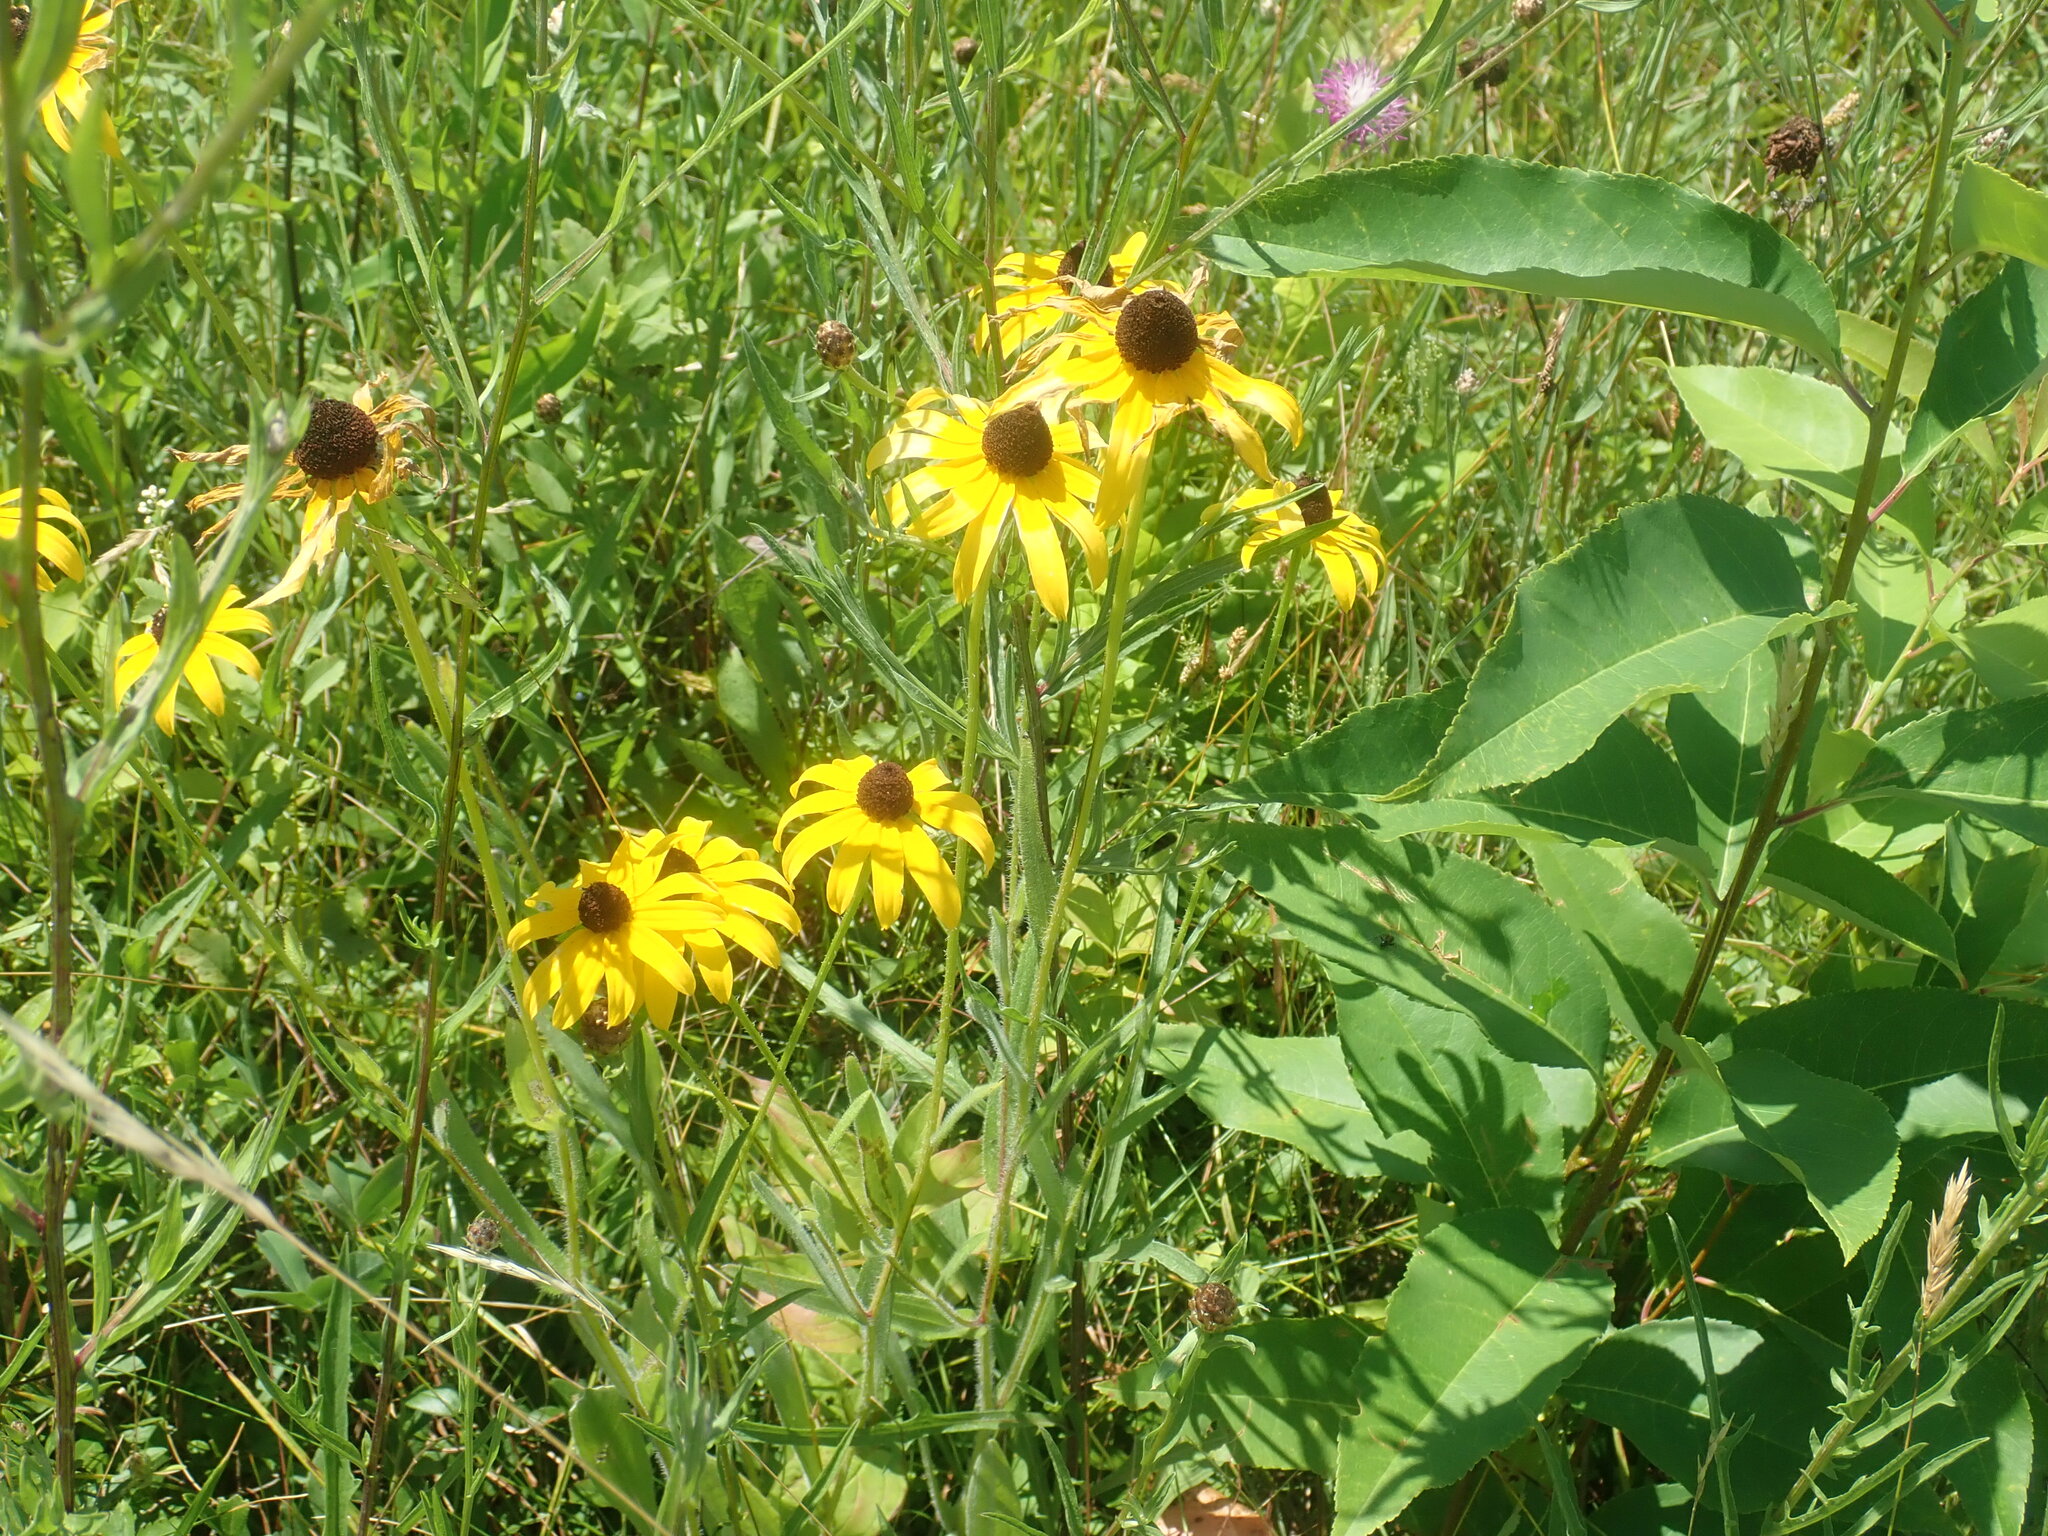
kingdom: Plantae
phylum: Tracheophyta
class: Magnoliopsida
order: Asterales
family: Asteraceae
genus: Rudbeckia
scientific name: Rudbeckia hirta
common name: Black-eyed-susan
